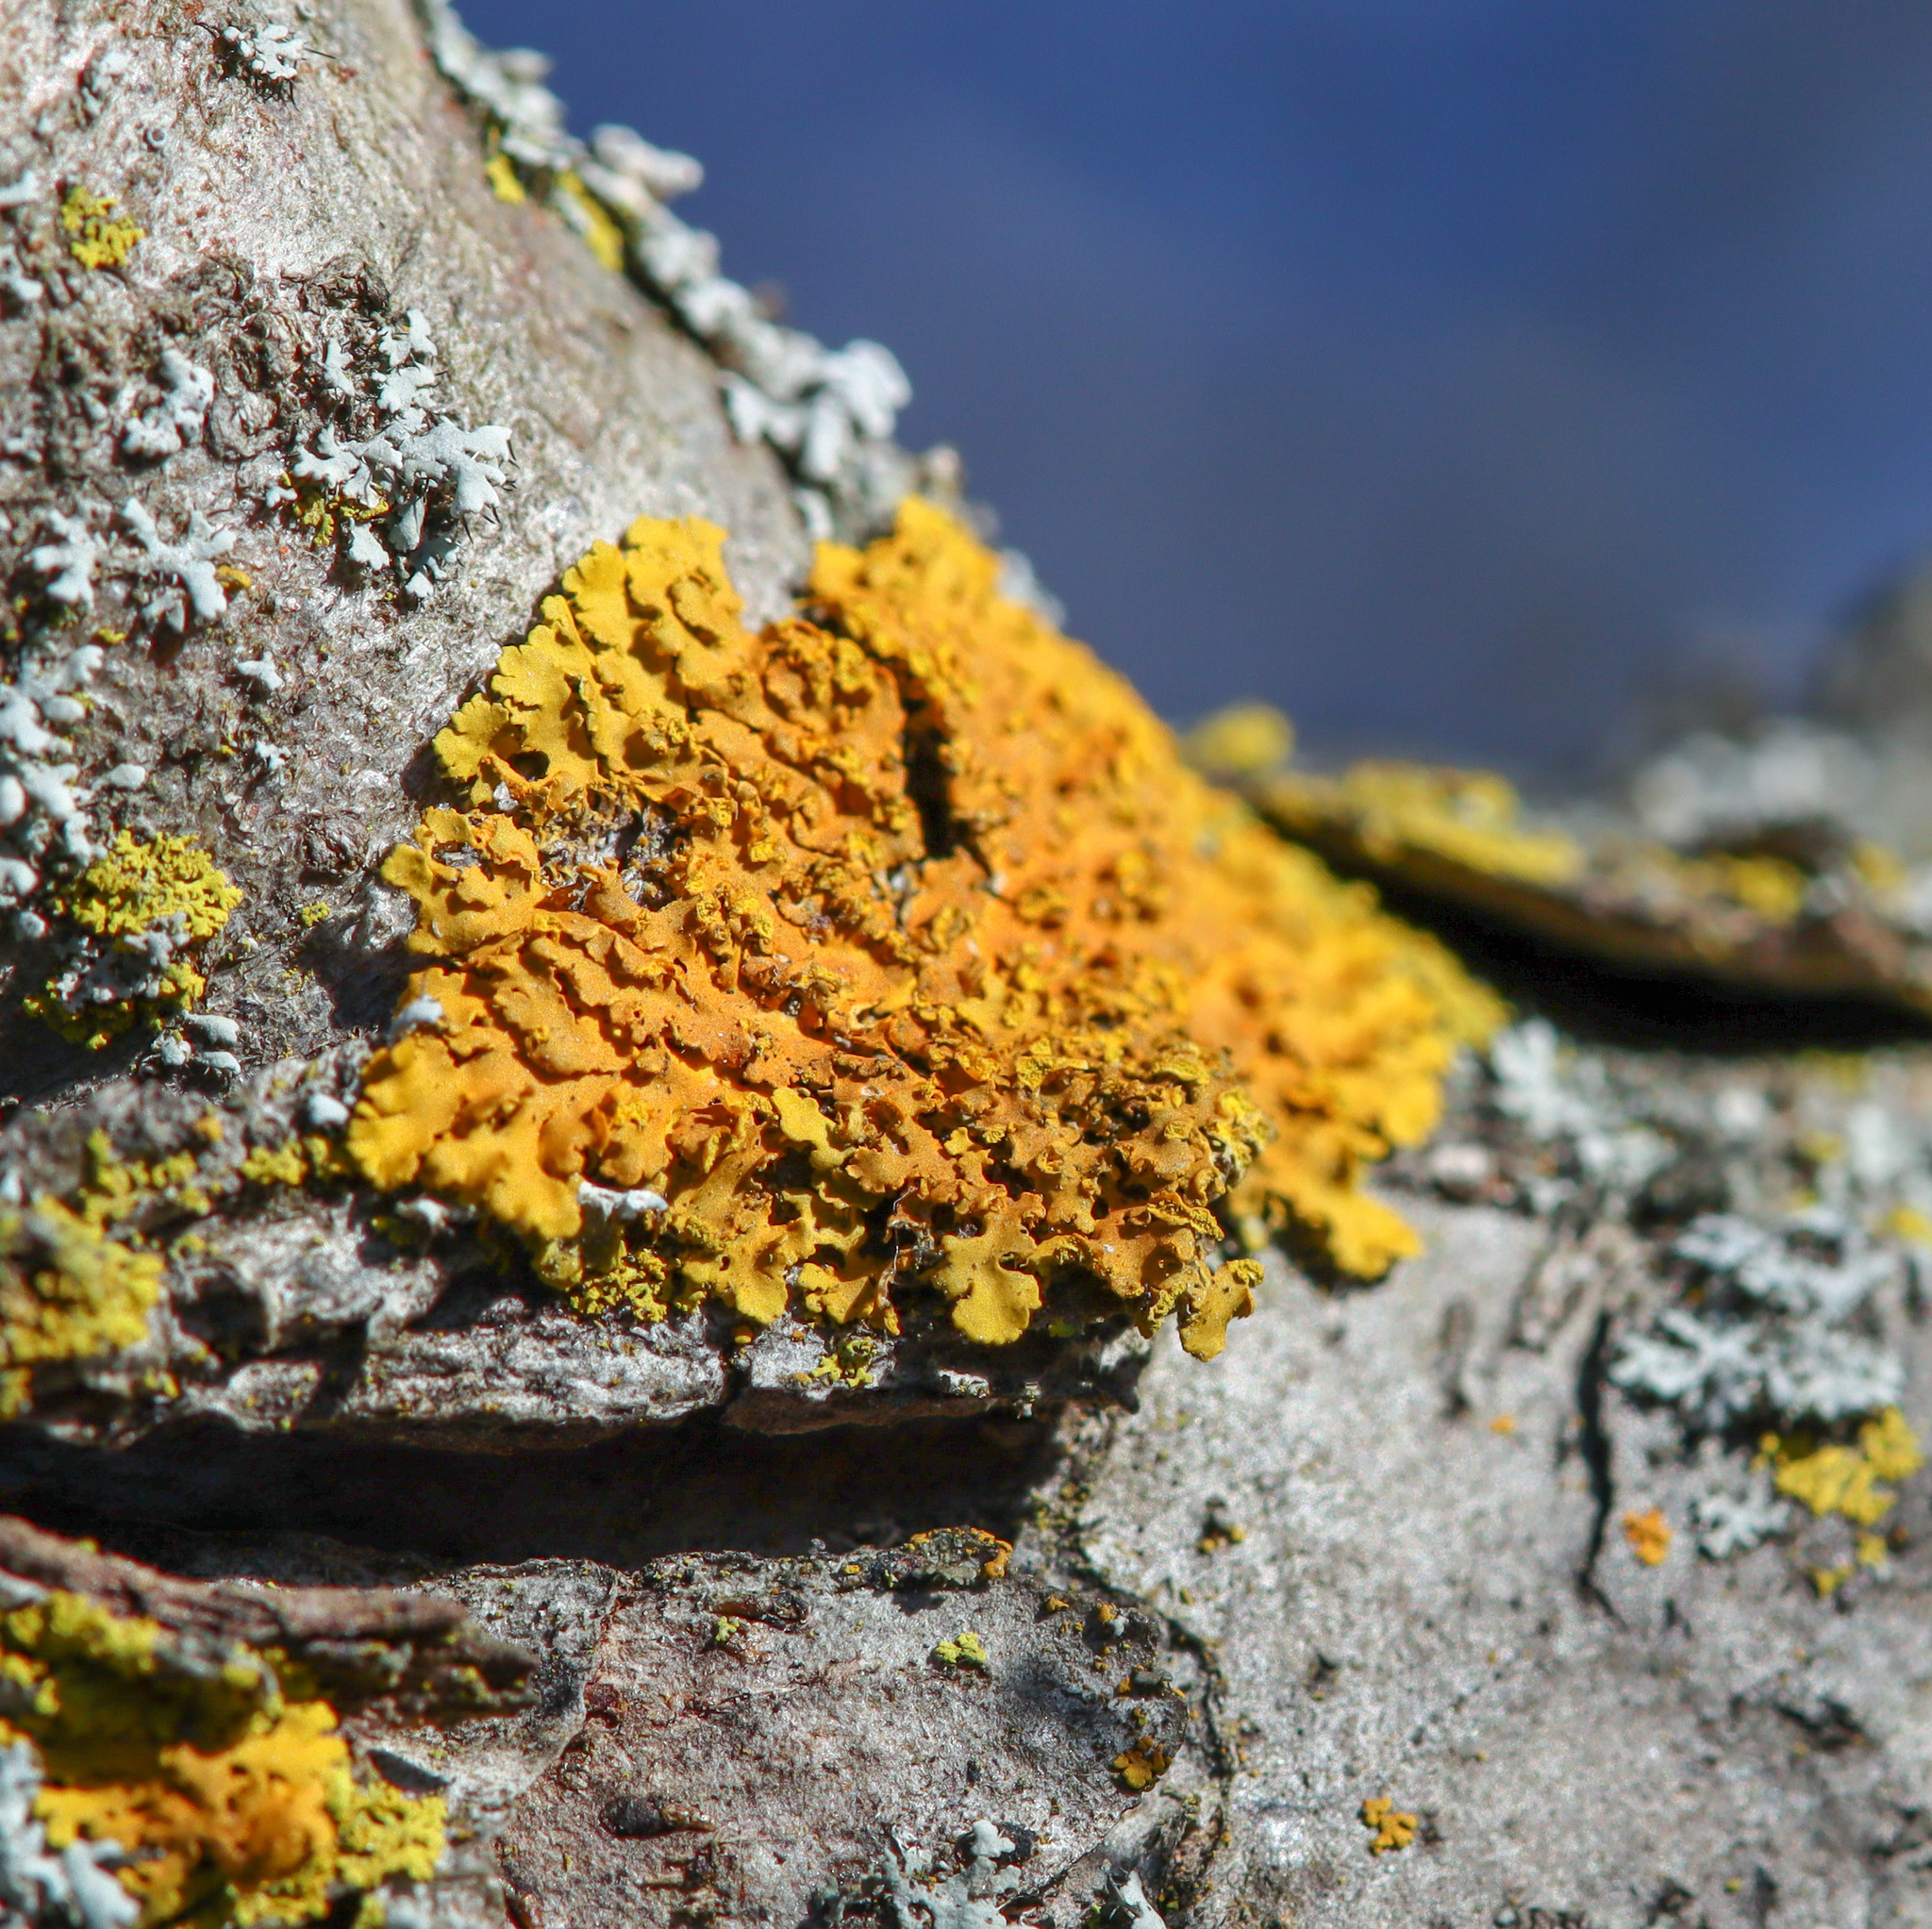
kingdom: Fungi
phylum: Ascomycota
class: Lecanoromycetes
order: Teloschistales
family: Teloschistaceae
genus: Oxneria
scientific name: Oxneria fallax
